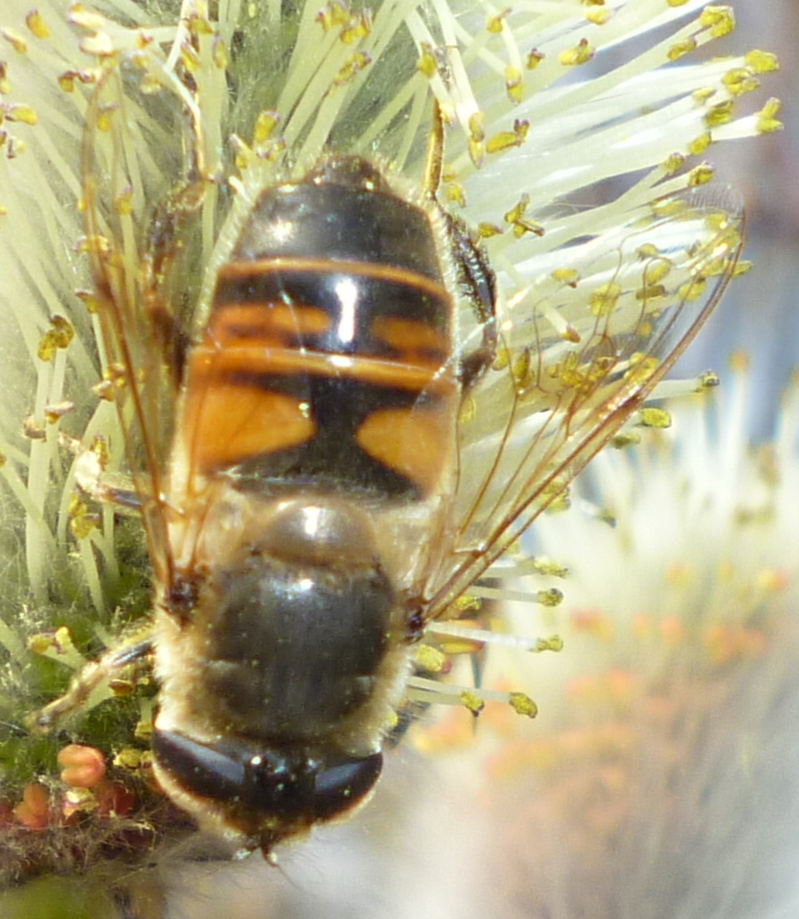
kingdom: Animalia
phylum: Arthropoda
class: Insecta
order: Diptera
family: Syrphidae
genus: Eristalis
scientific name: Eristalis tenax
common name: Drone fly
